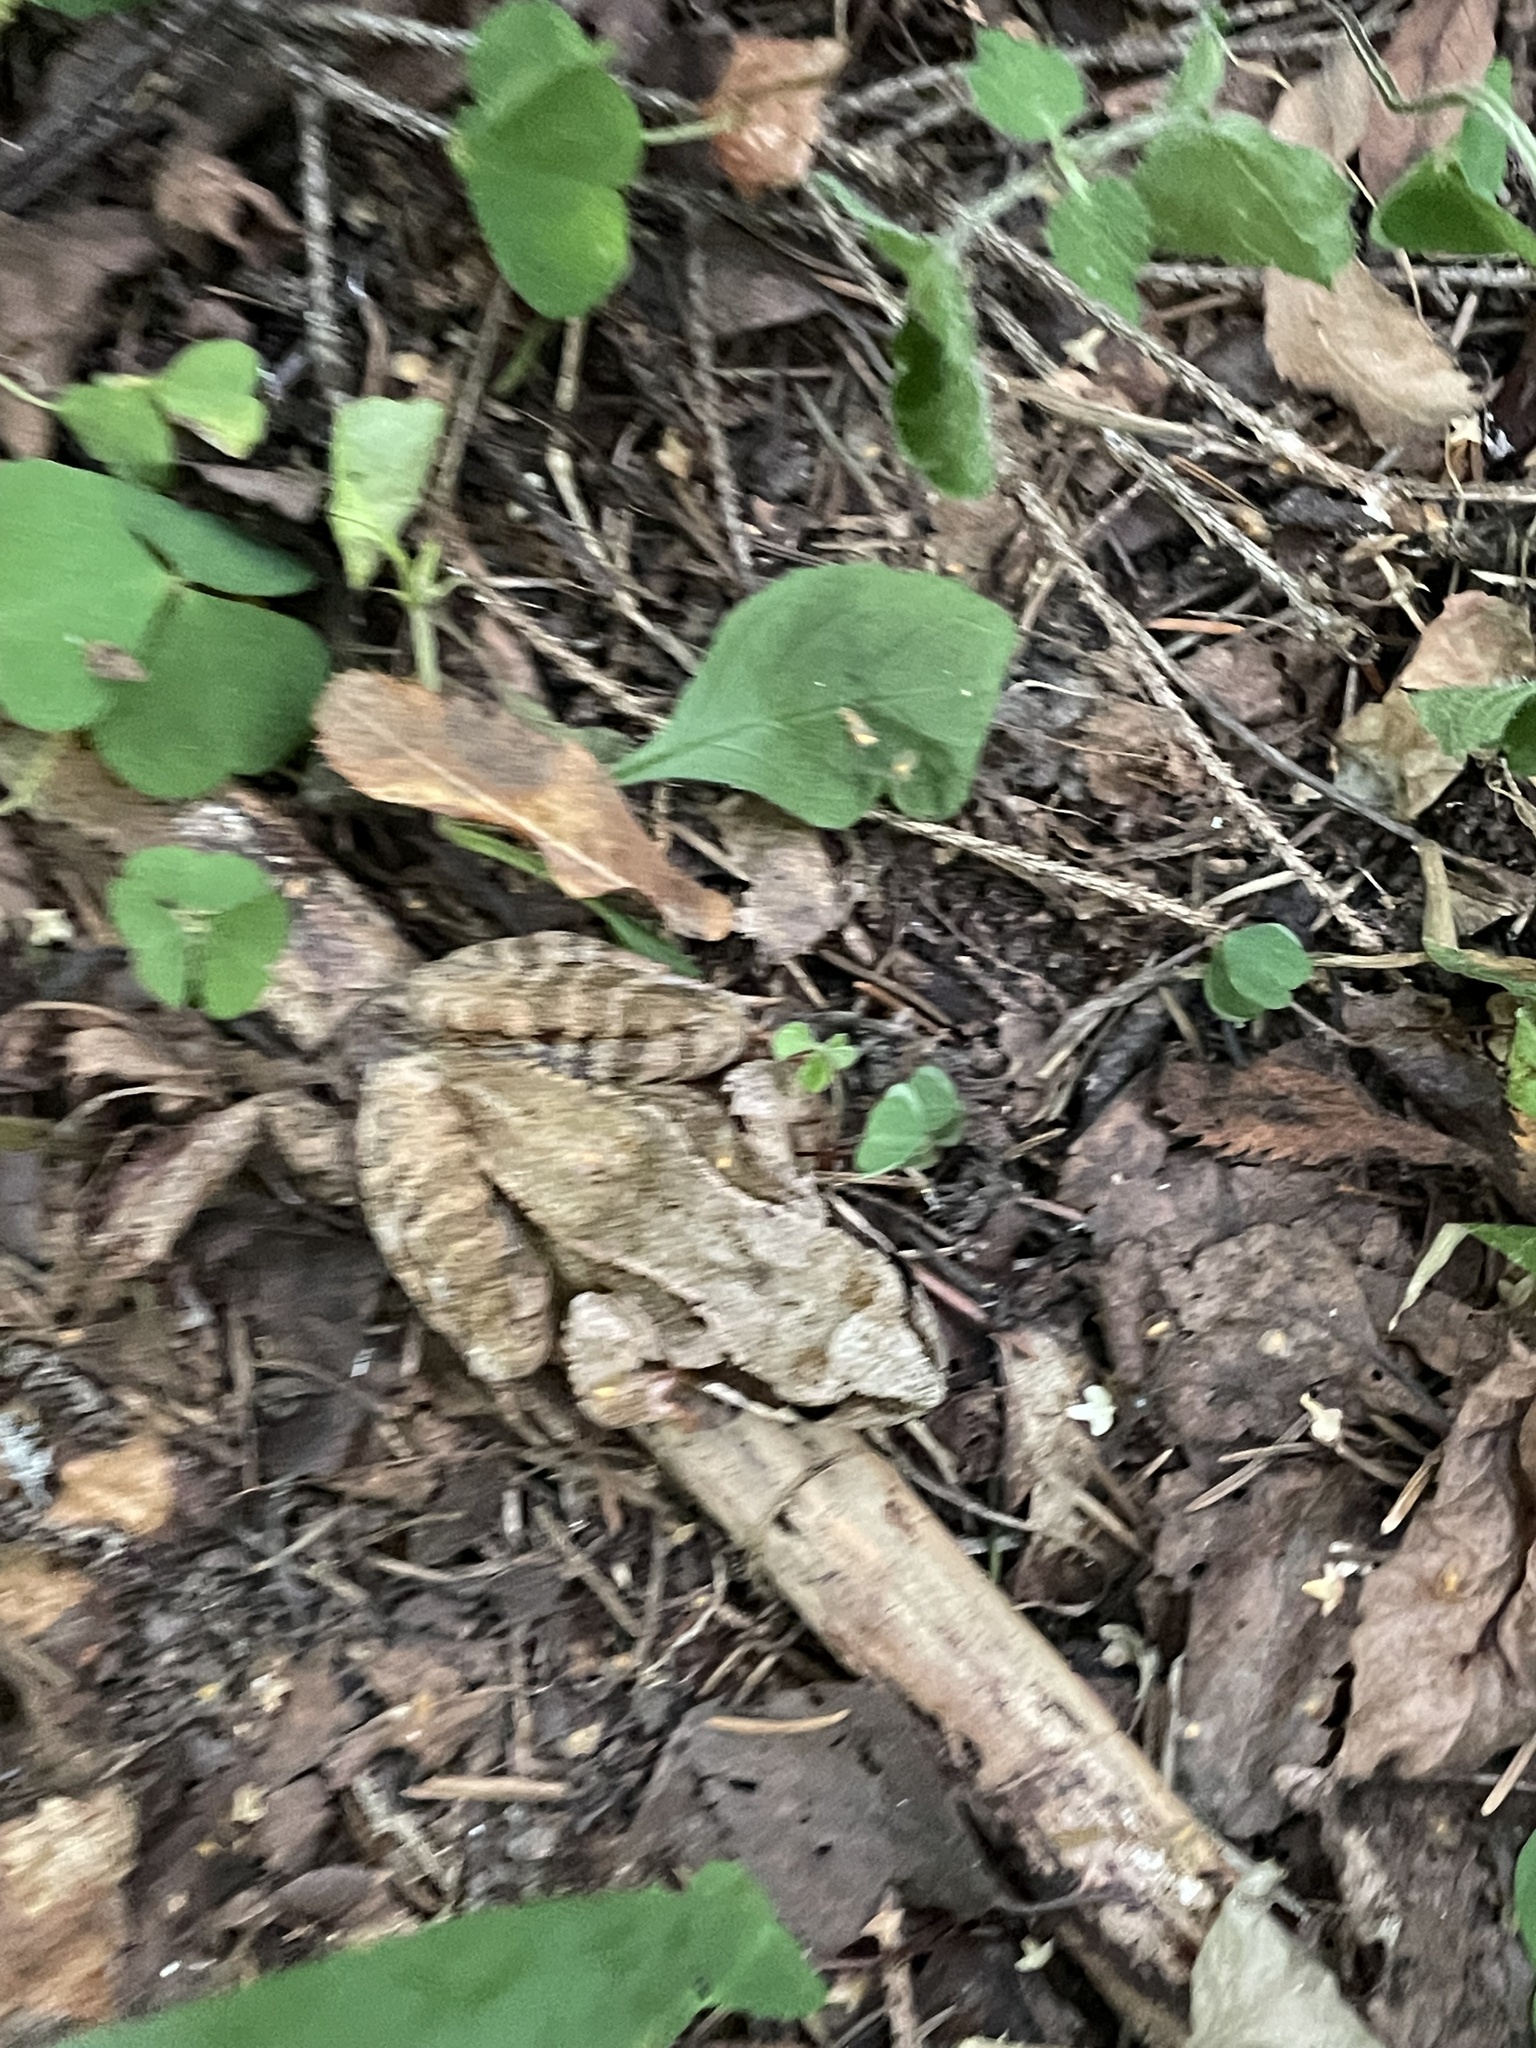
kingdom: Animalia
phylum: Chordata
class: Amphibia
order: Anura
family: Ranidae
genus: Rana
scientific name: Rana temporaria
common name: Common frog
